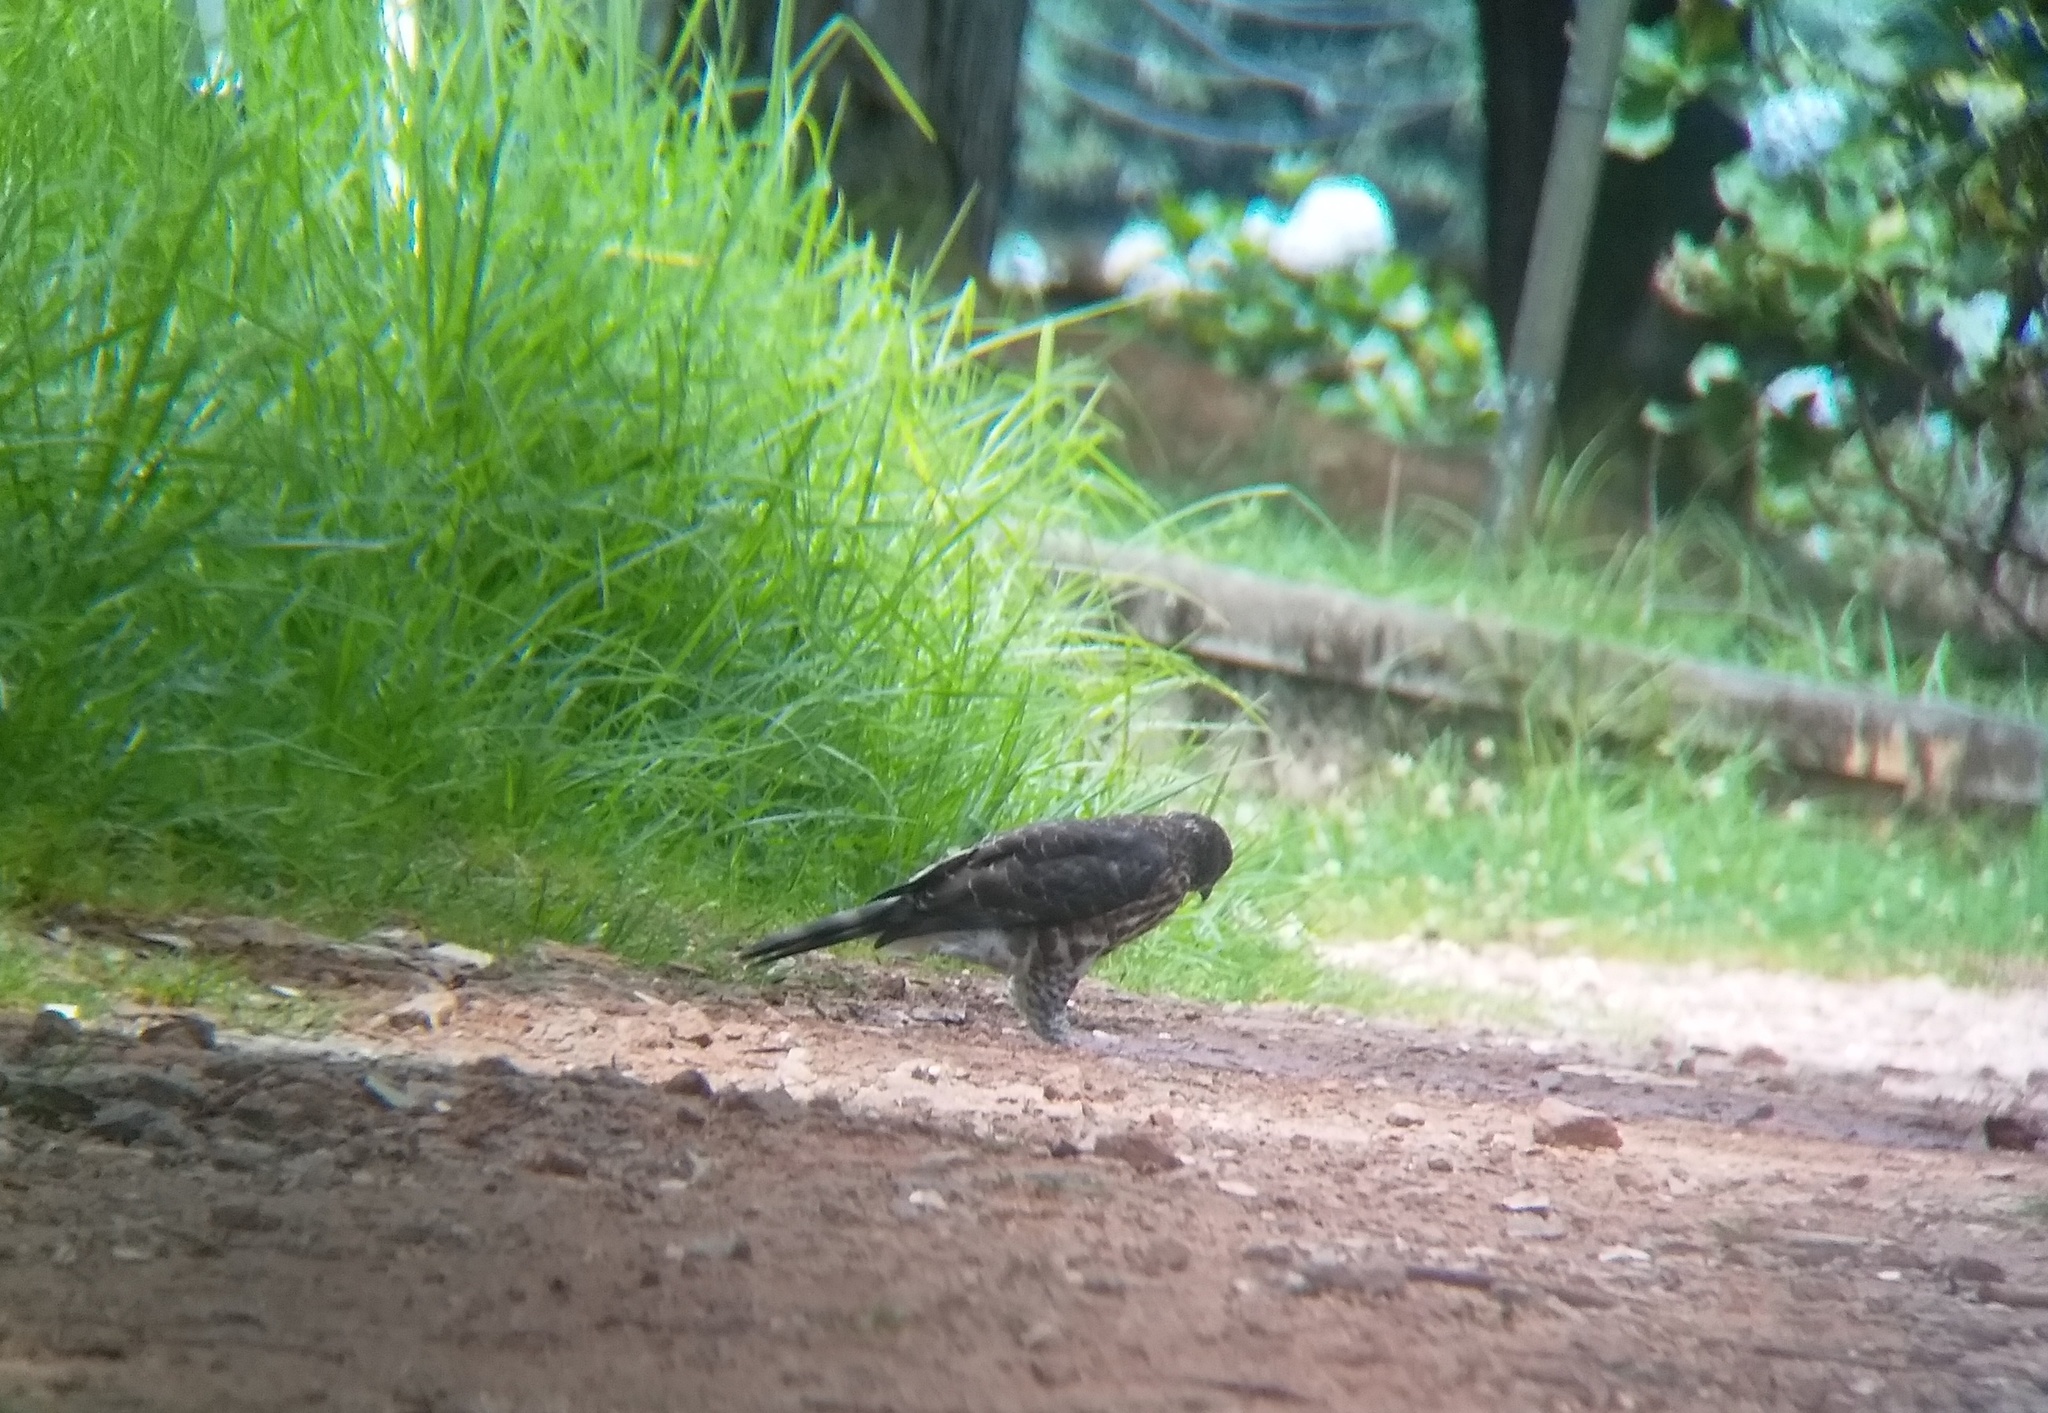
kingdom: Animalia
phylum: Chordata
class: Aves
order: Accipitriformes
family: Accipitridae
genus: Accipiter
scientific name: Accipiter trivirgatus
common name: Crested goshawk
